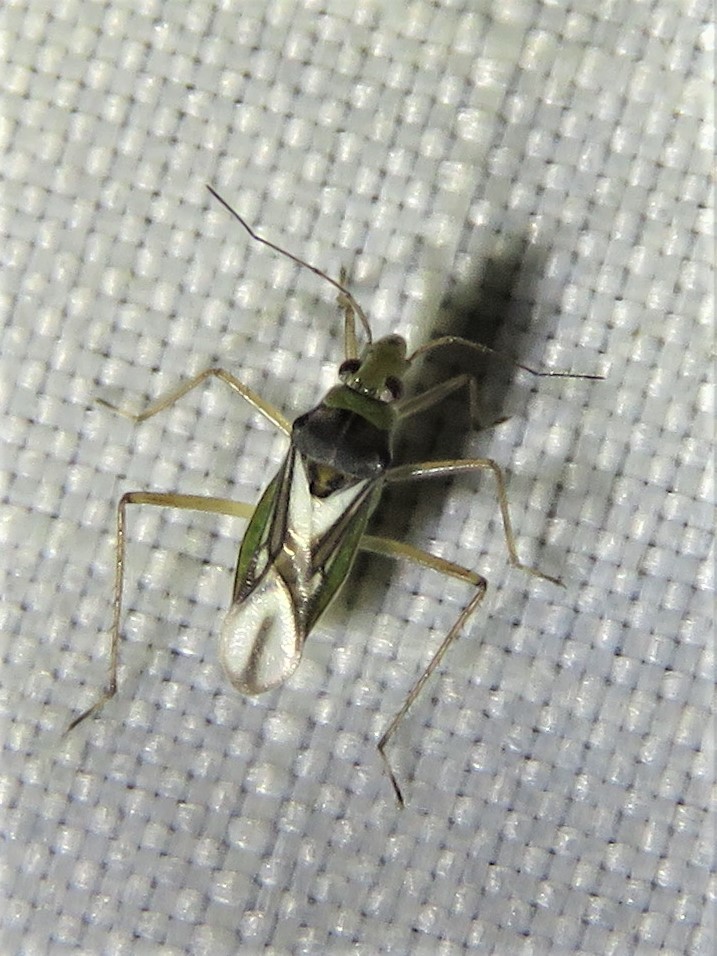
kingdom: Animalia
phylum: Arthropoda
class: Insecta
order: Hemiptera
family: Mesoveliidae
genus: Mesovelia
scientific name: Mesovelia mulsanti
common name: Water treaders
